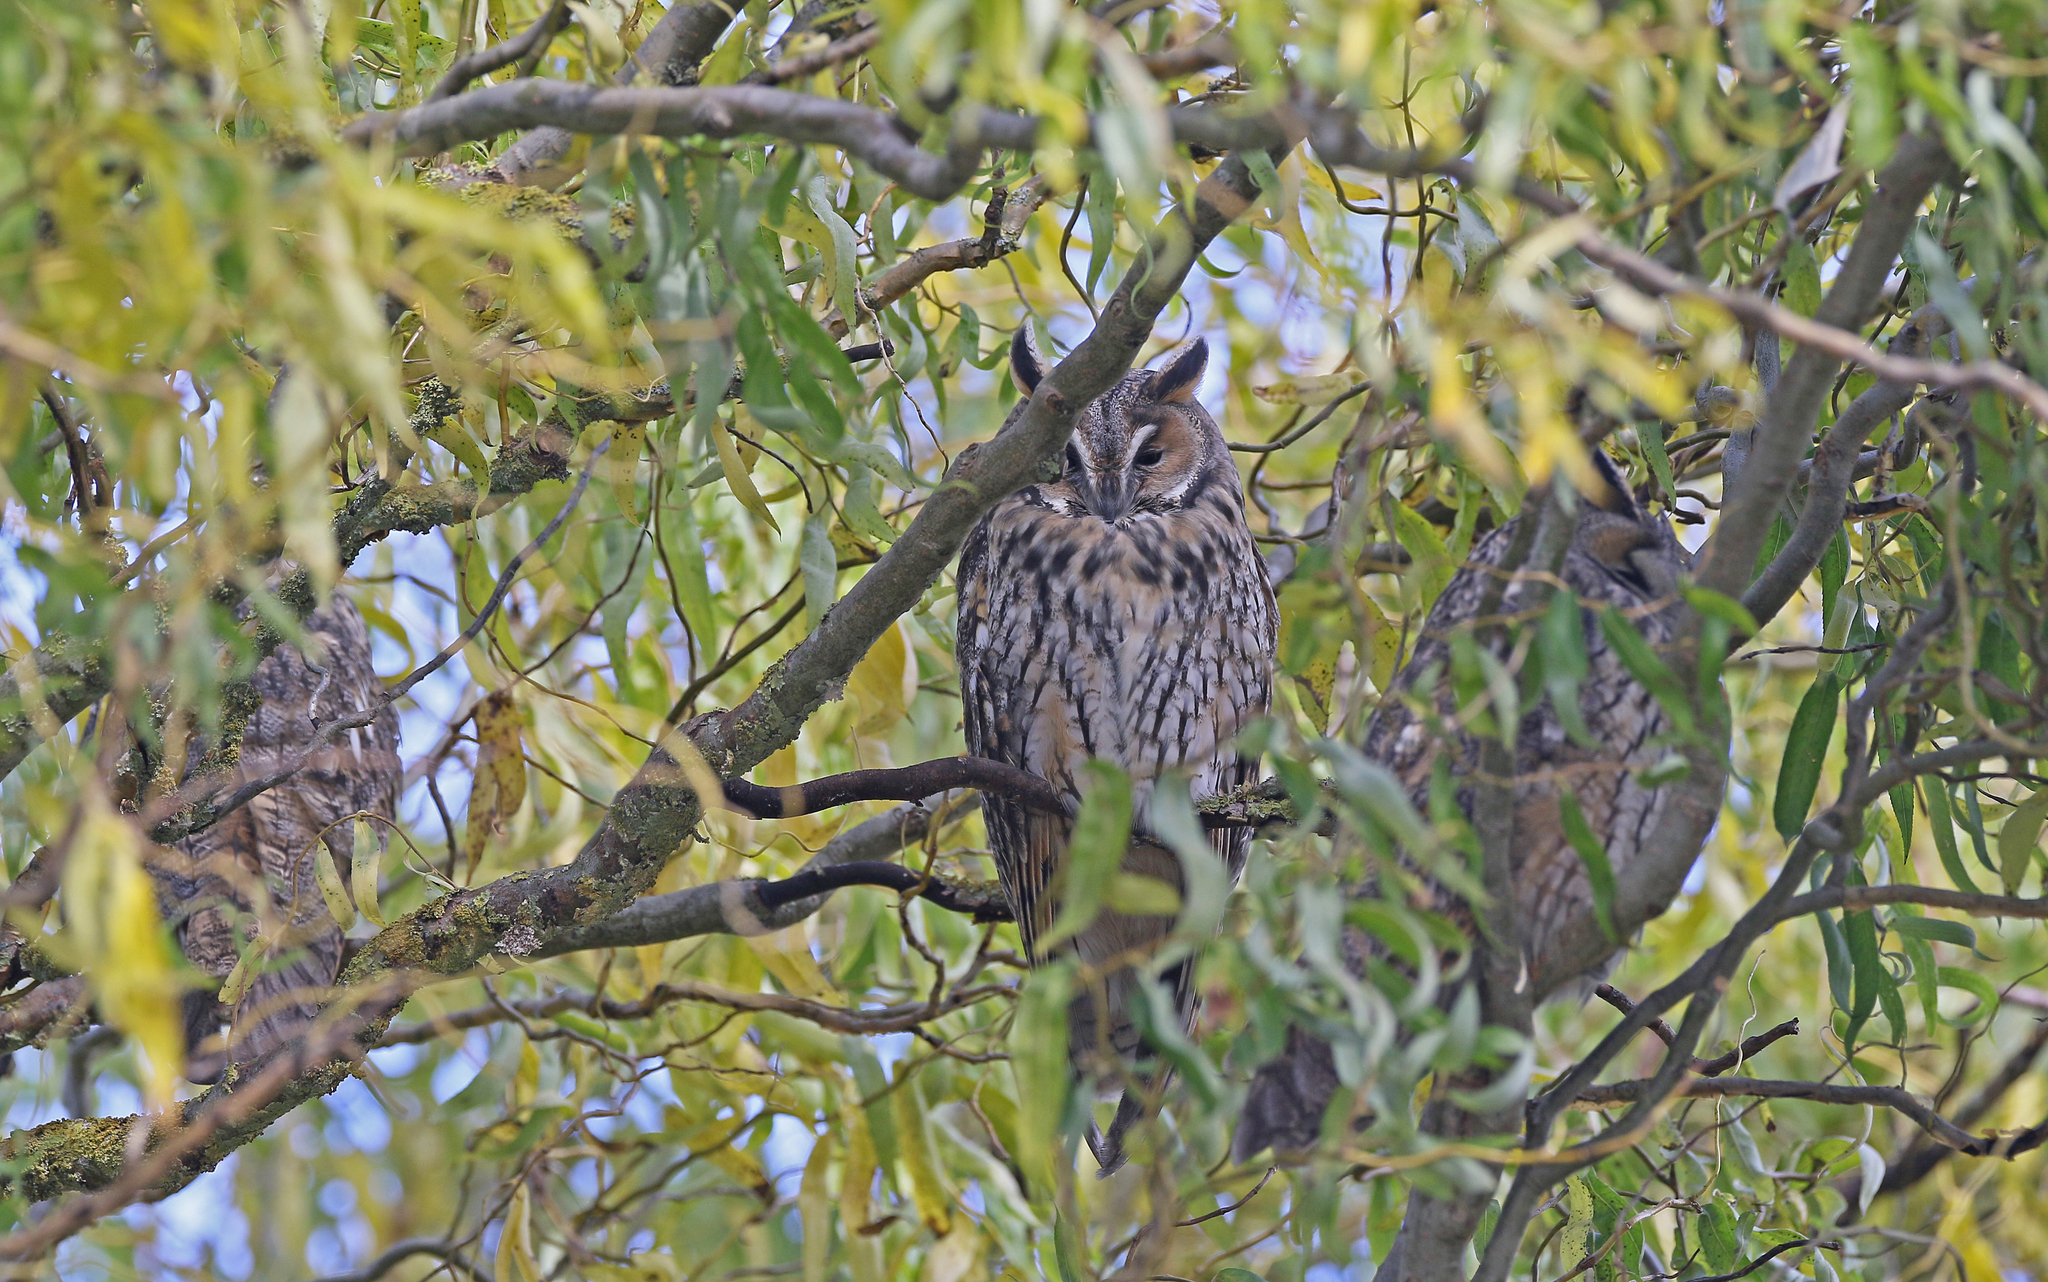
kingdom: Animalia
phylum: Chordata
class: Aves
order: Strigiformes
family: Strigidae
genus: Asio
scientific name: Asio otus
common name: Long-eared owl
